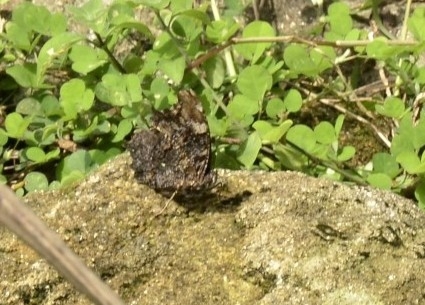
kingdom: Animalia
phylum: Arthropoda
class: Insecta
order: Lepidoptera
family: Nymphalidae
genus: Vanessa
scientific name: Vanessa Kaniska canace
